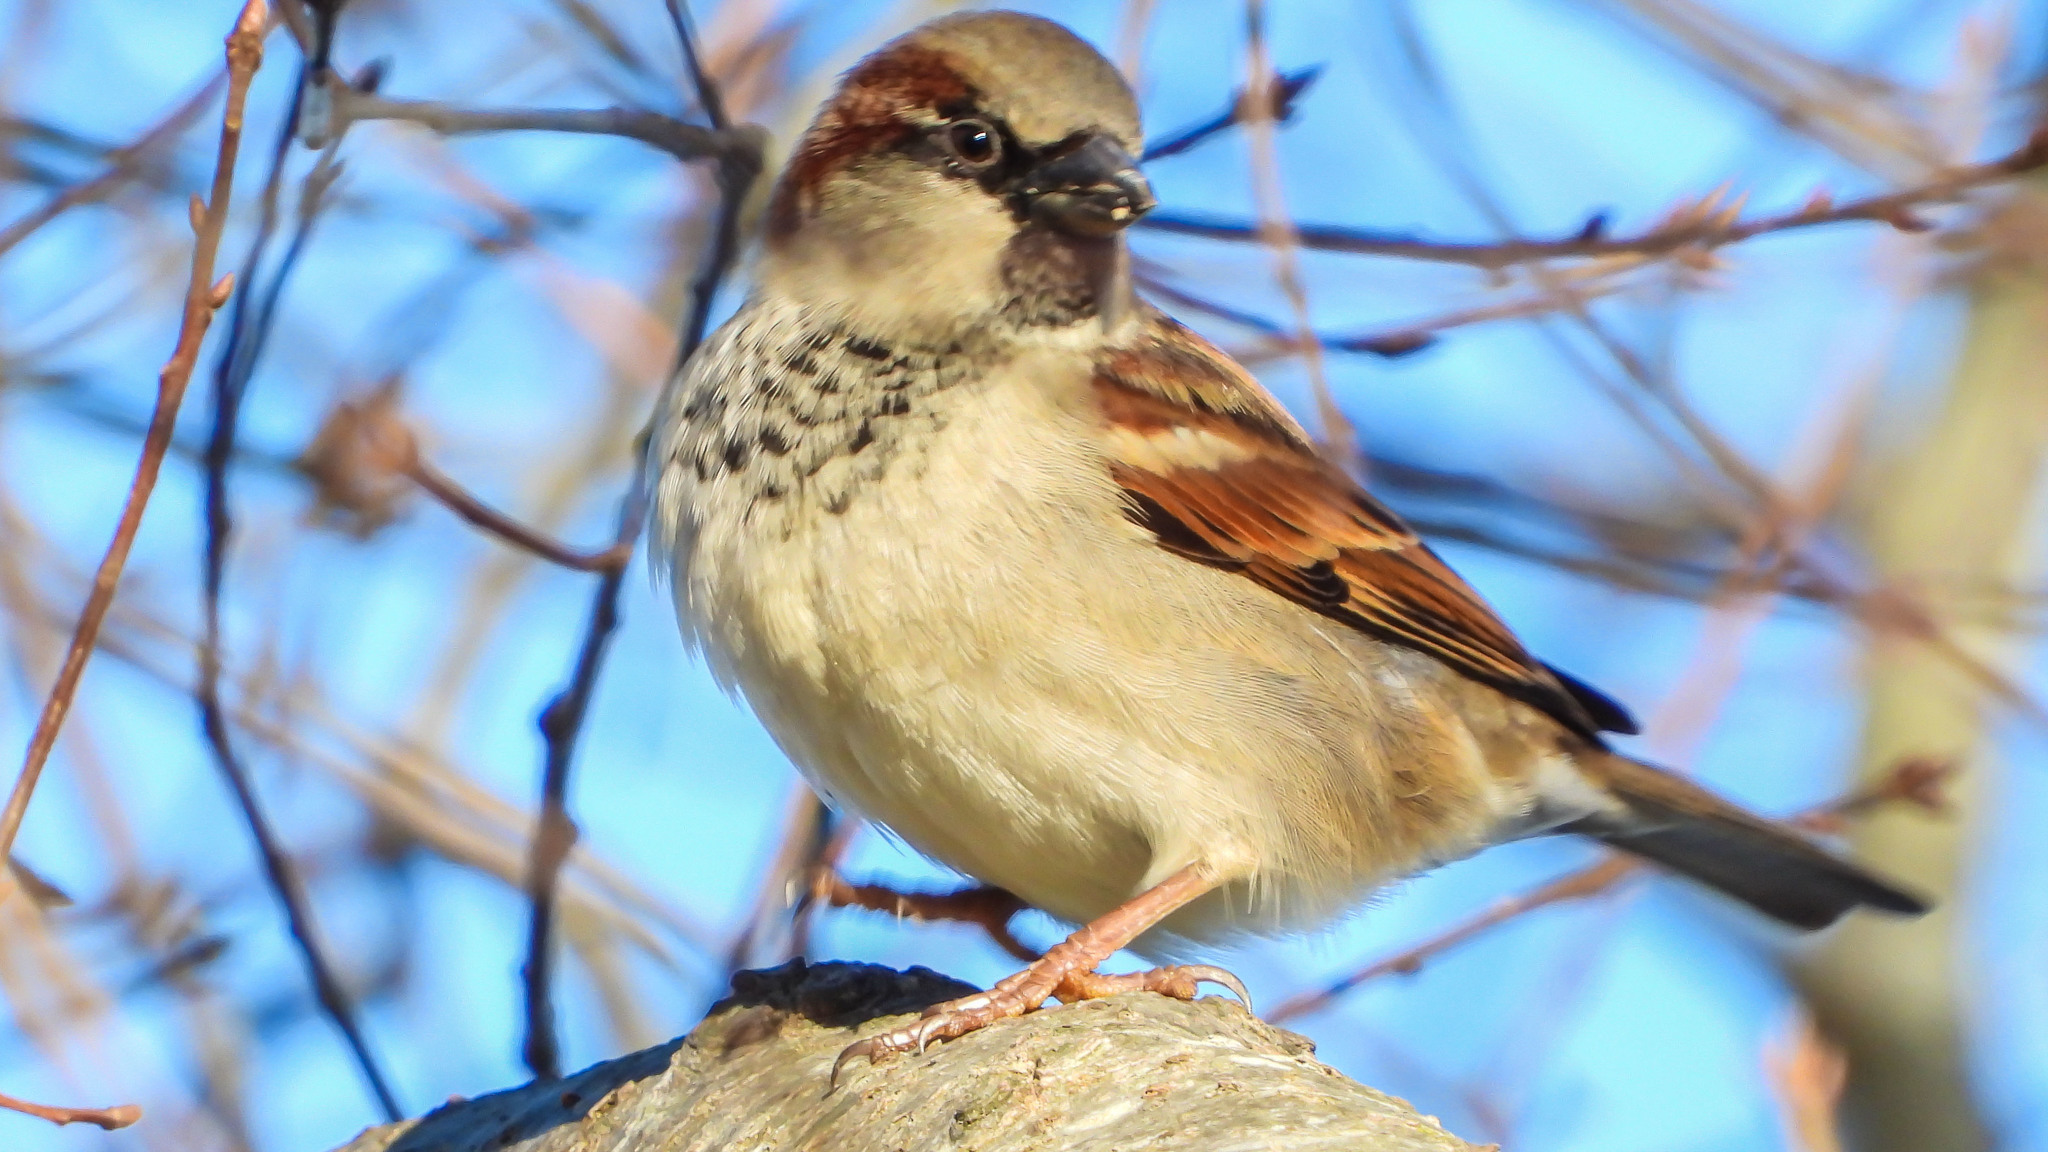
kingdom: Animalia
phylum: Chordata
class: Aves
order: Passeriformes
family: Passeridae
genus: Passer
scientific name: Passer domesticus
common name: House sparrow
